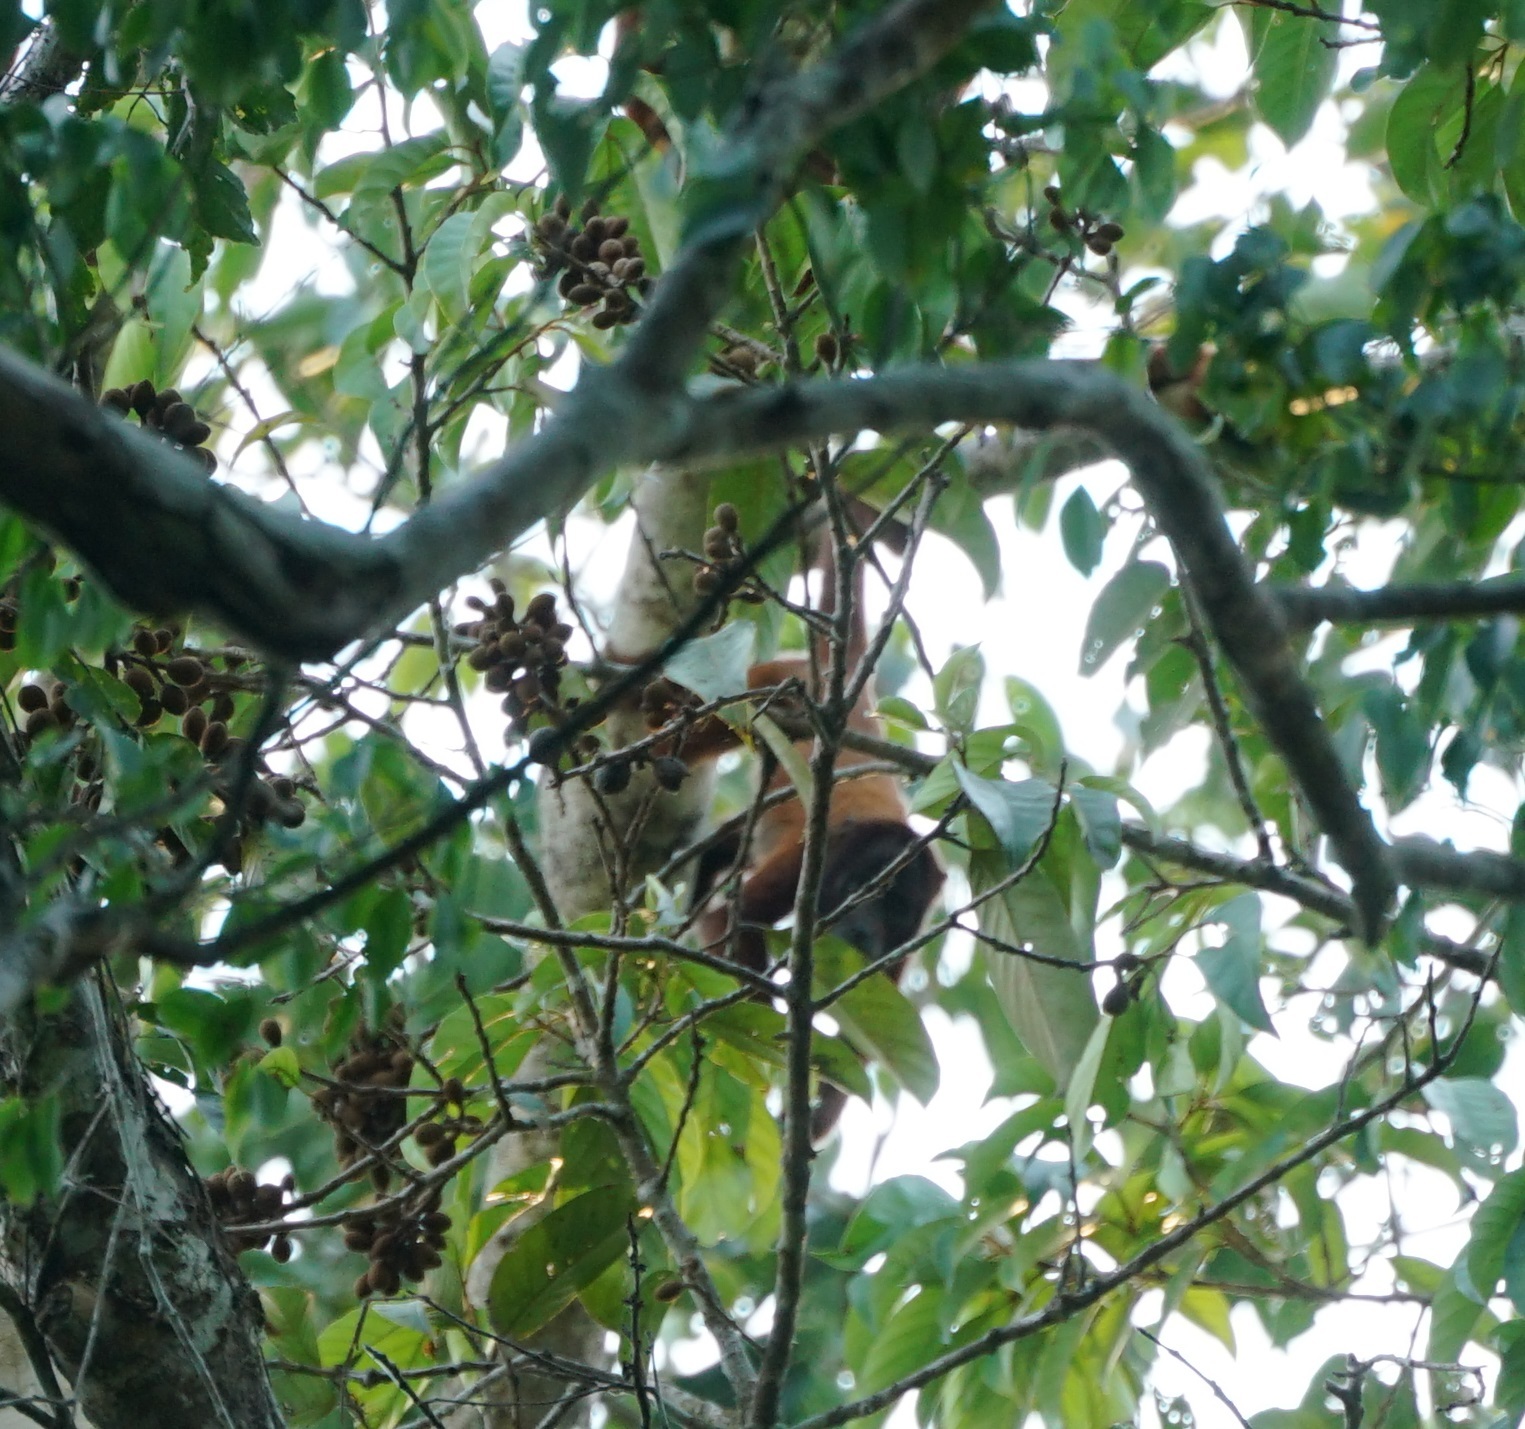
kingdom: Animalia
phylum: Chordata
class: Mammalia
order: Primates
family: Atelidae
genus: Alouatta
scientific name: Alouatta sara
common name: Bolivian red howler
